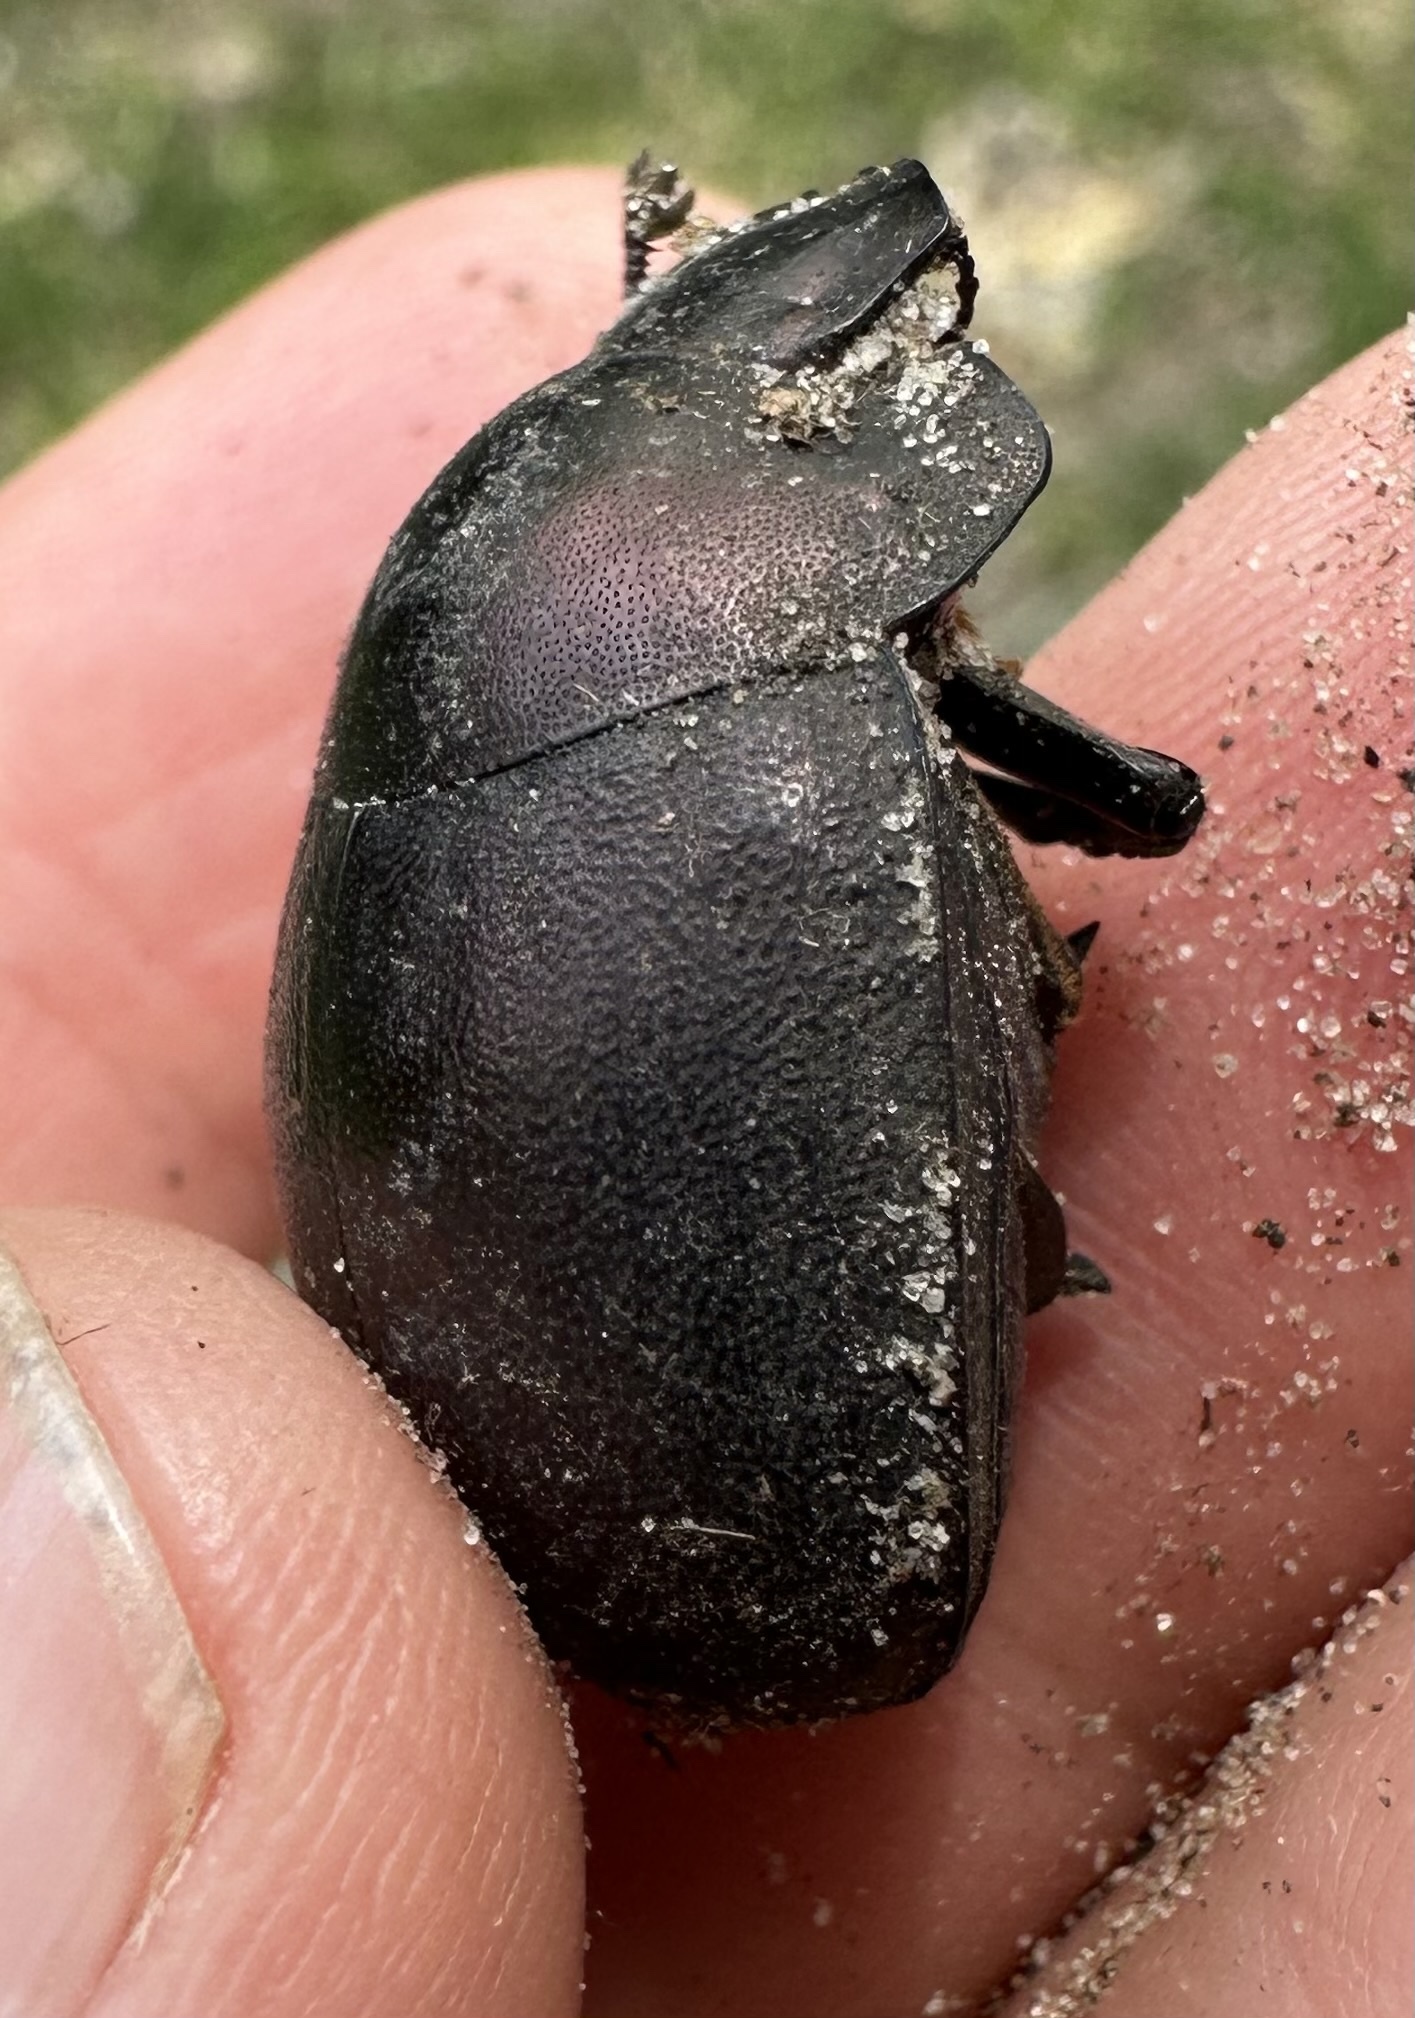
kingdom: Animalia
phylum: Arthropoda
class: Insecta
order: Coleoptera
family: Scarabaeidae
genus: Chalconotus
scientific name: Chalconotus convexus
